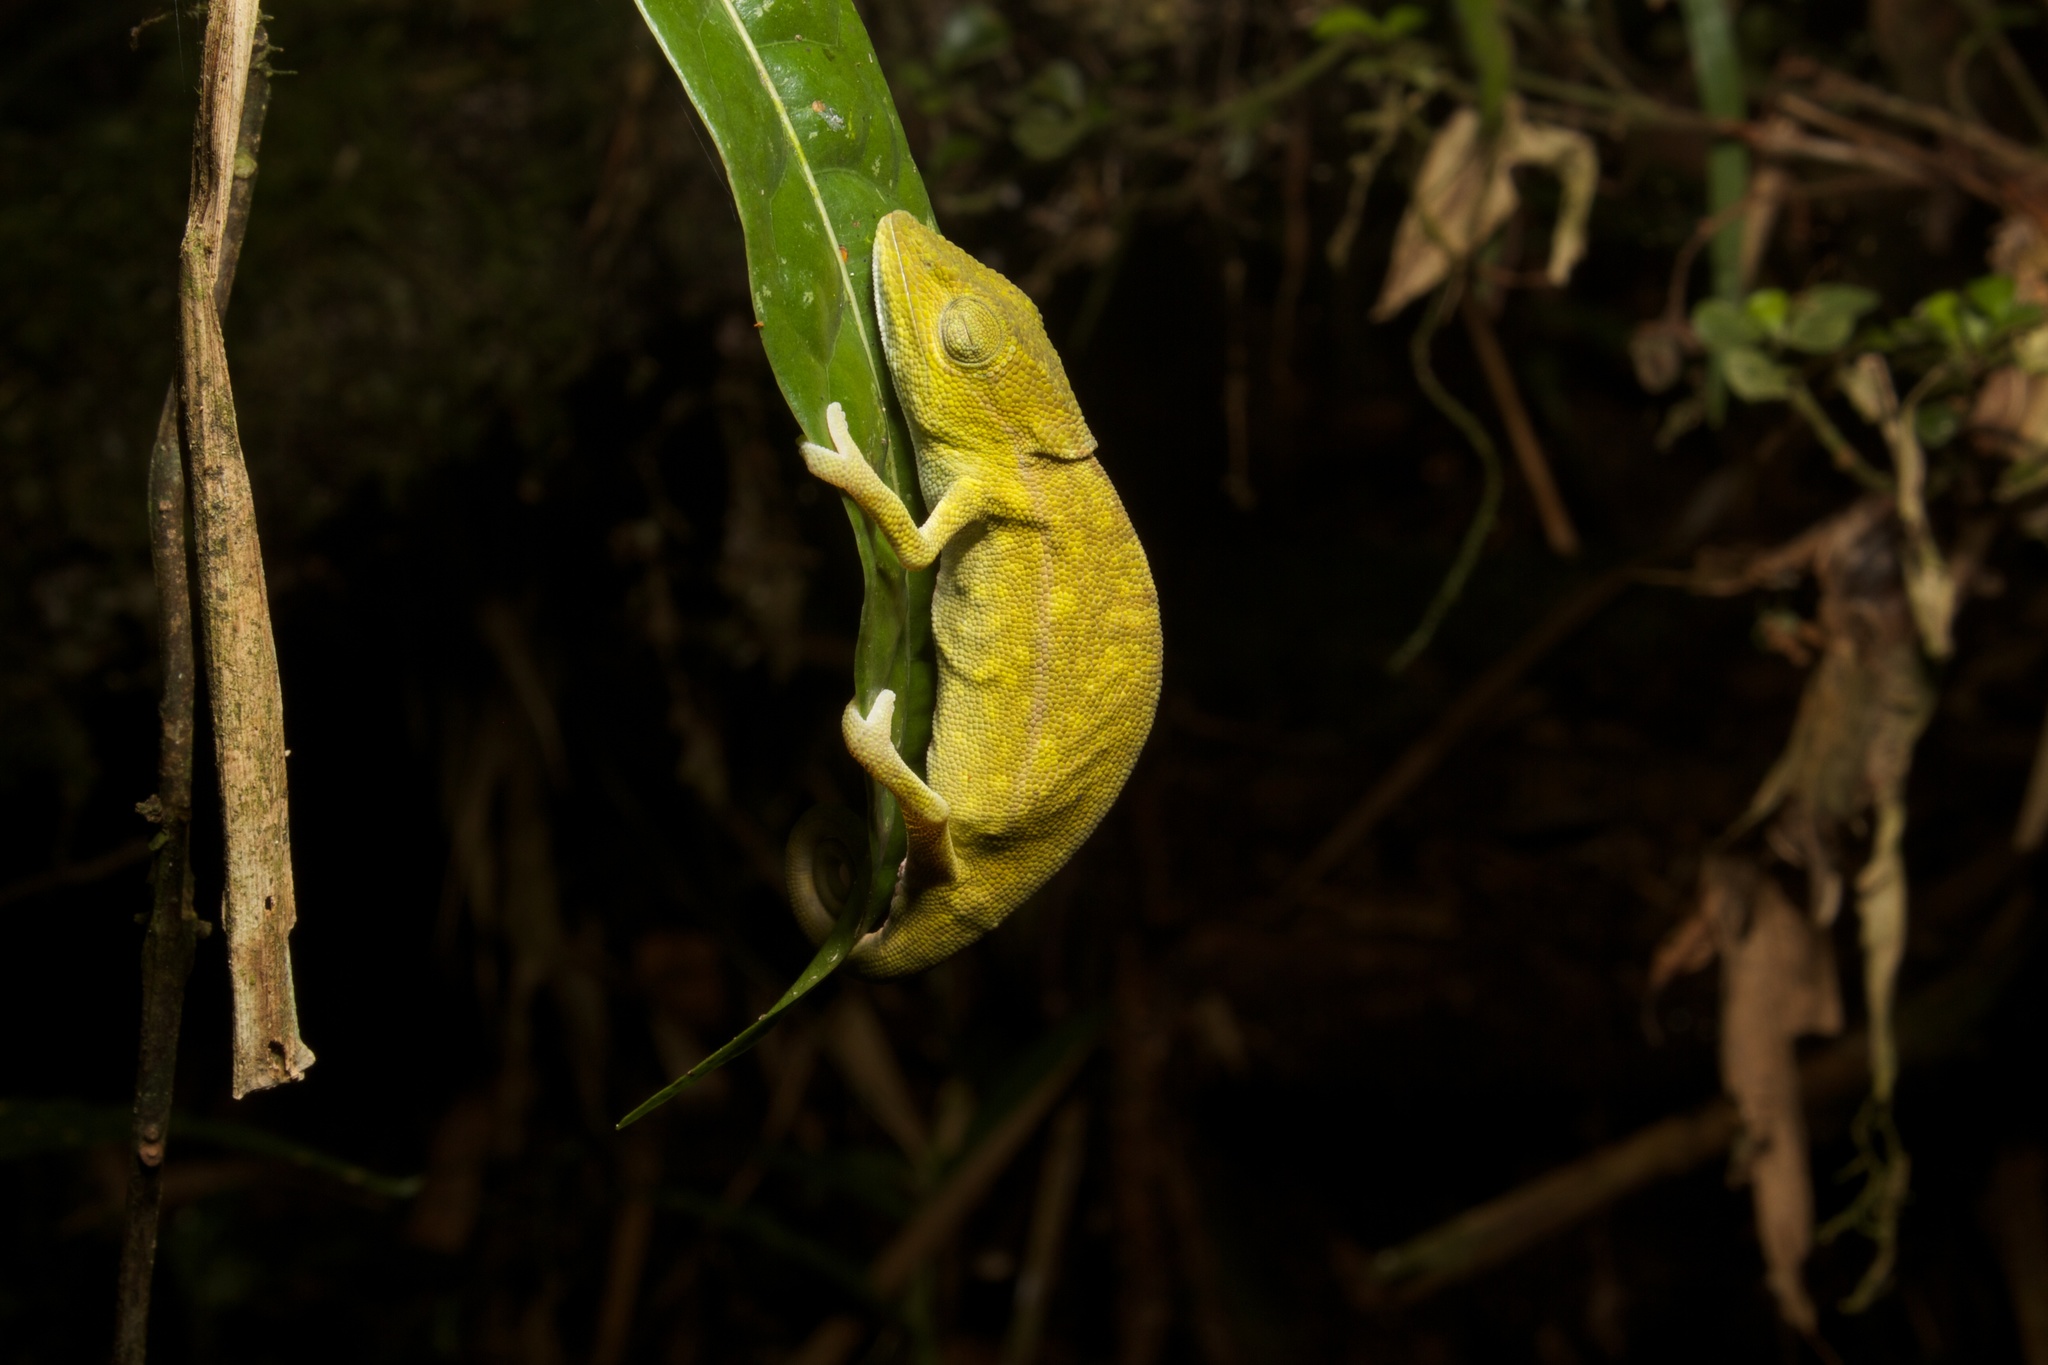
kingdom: Animalia
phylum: Chordata
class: Squamata
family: Chamaeleonidae
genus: Calumma
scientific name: Calumma glawi
